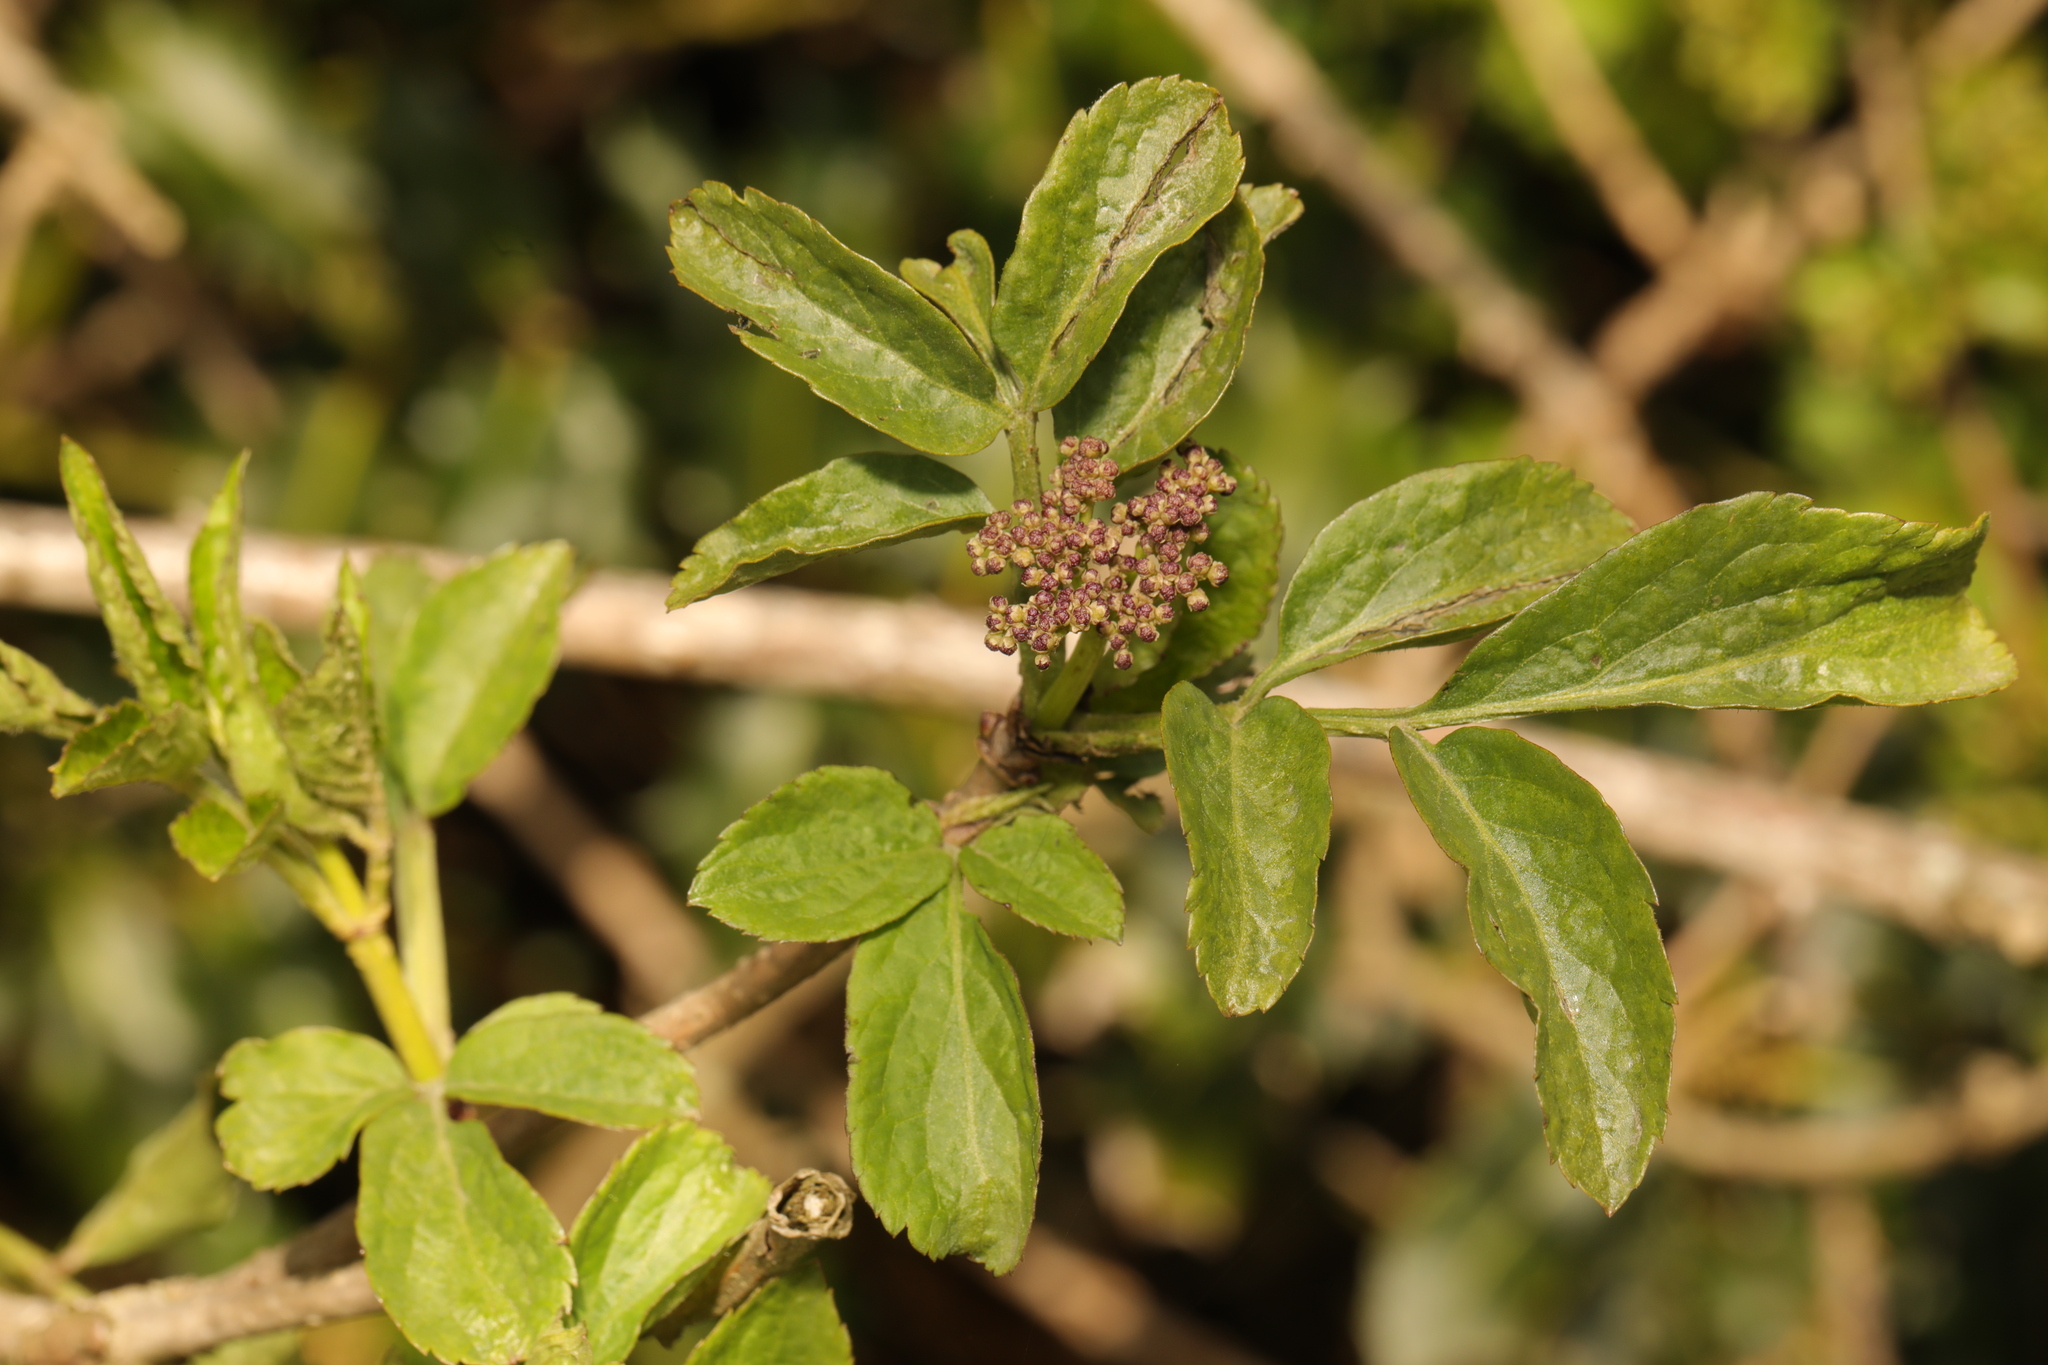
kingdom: Plantae
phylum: Tracheophyta
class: Magnoliopsida
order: Dipsacales
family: Viburnaceae
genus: Sambucus
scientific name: Sambucus nigra
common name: Elder
